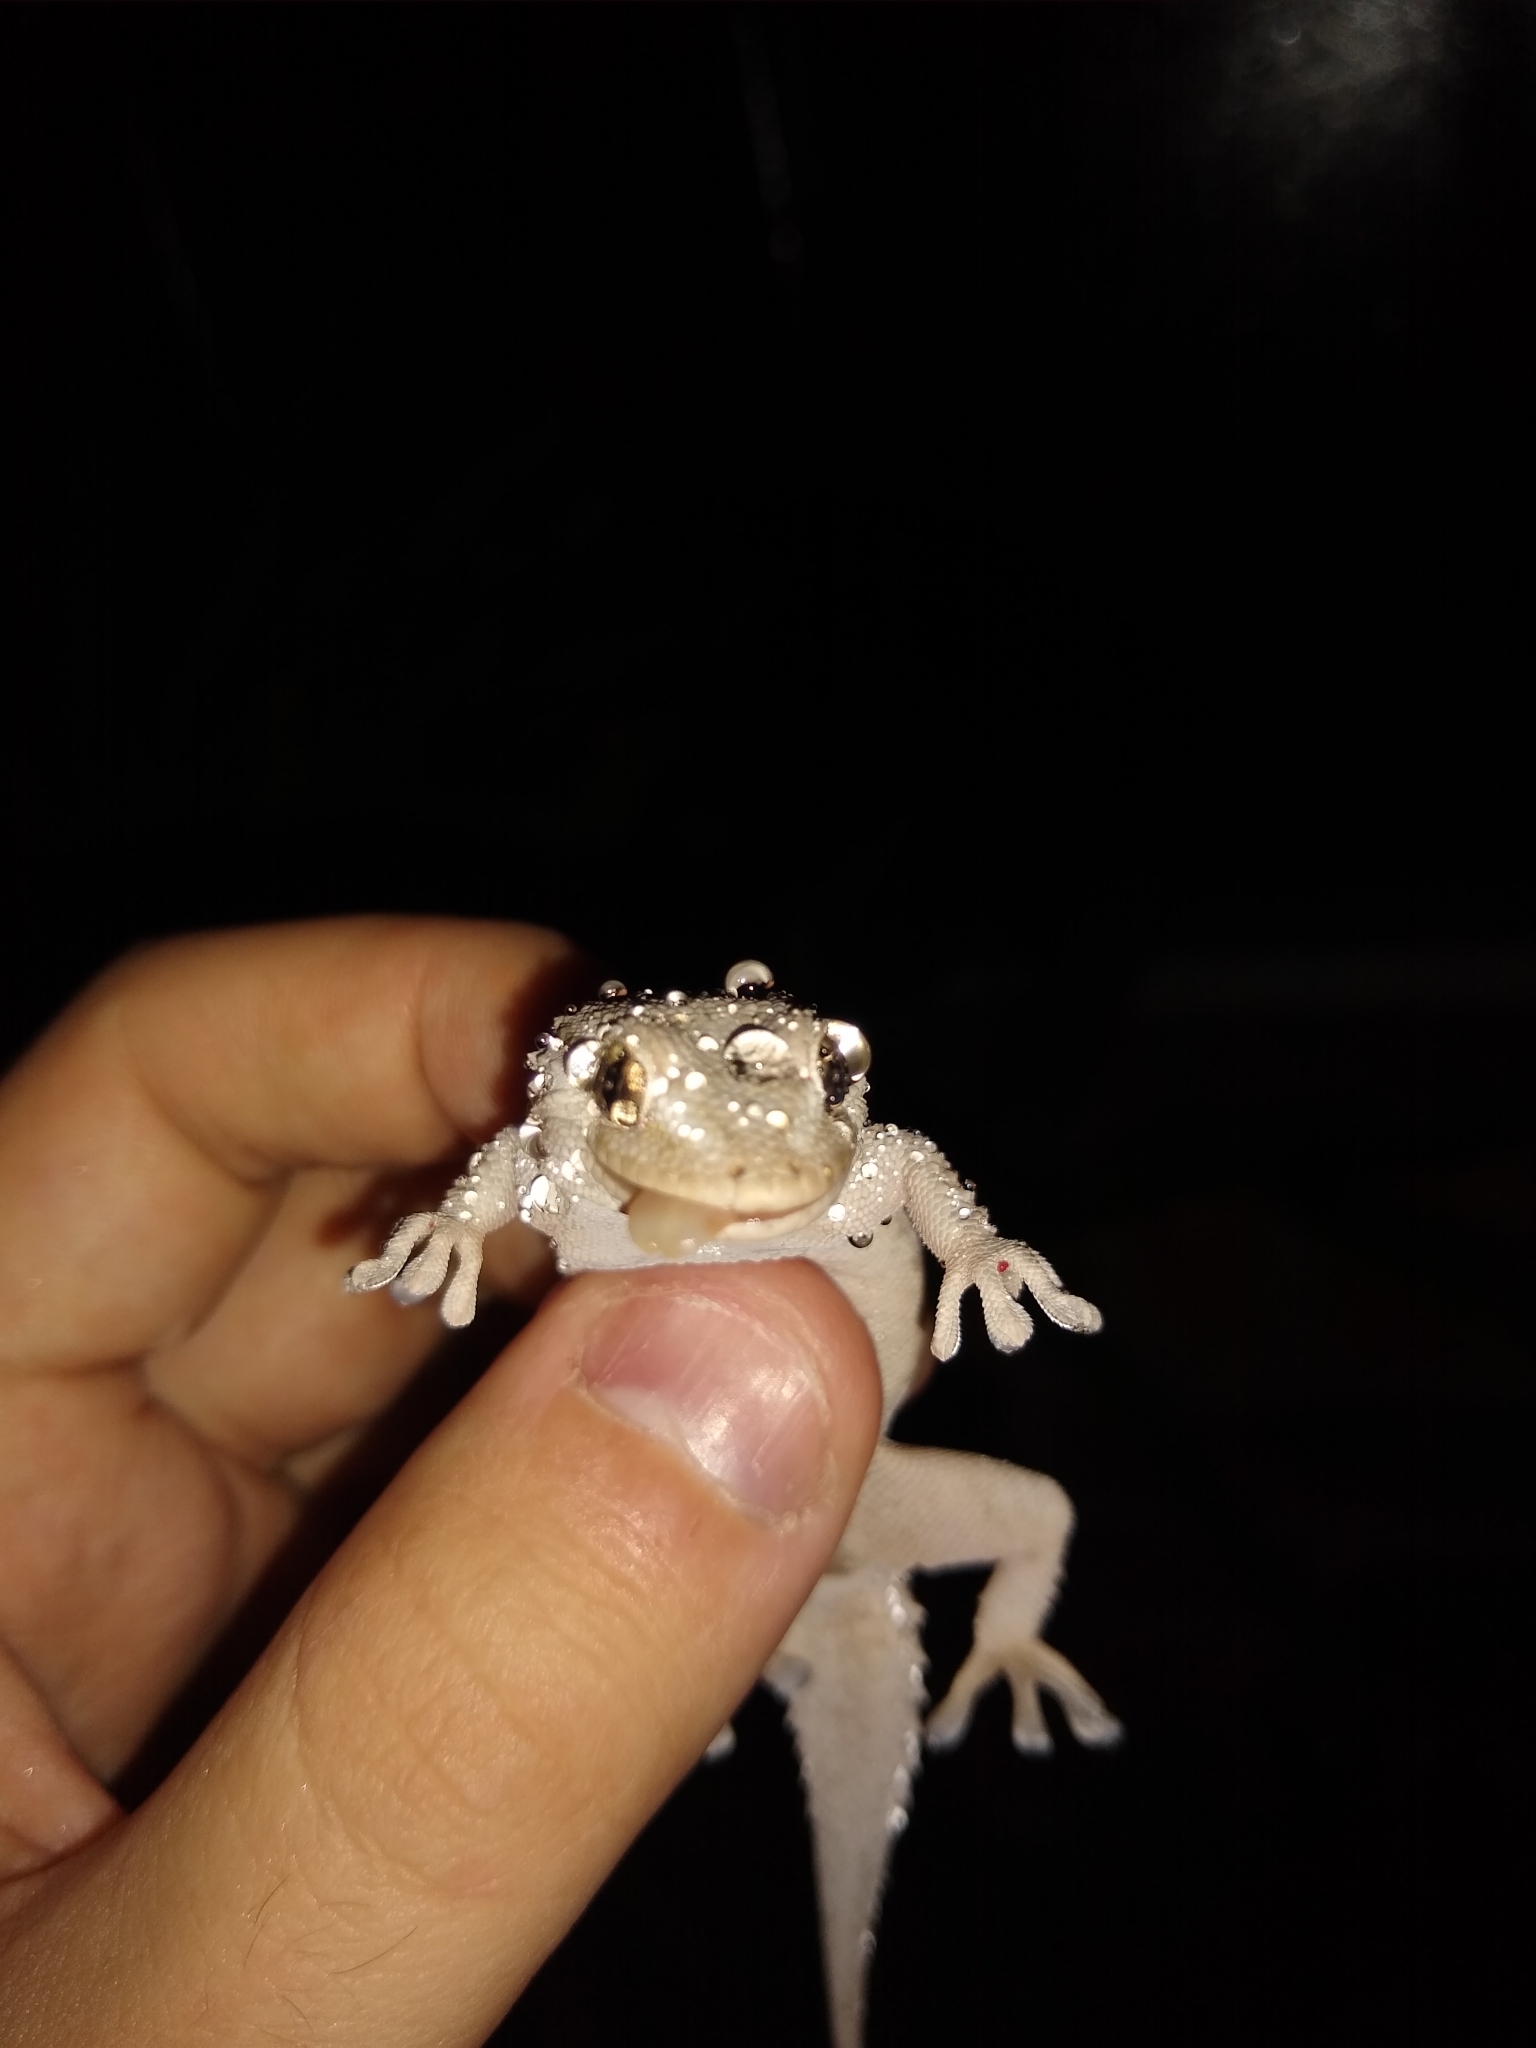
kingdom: Animalia
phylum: Chordata
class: Squamata
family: Phyllodactylidae
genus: Tarentola
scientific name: Tarentola mauritanica
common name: Moorish gecko
